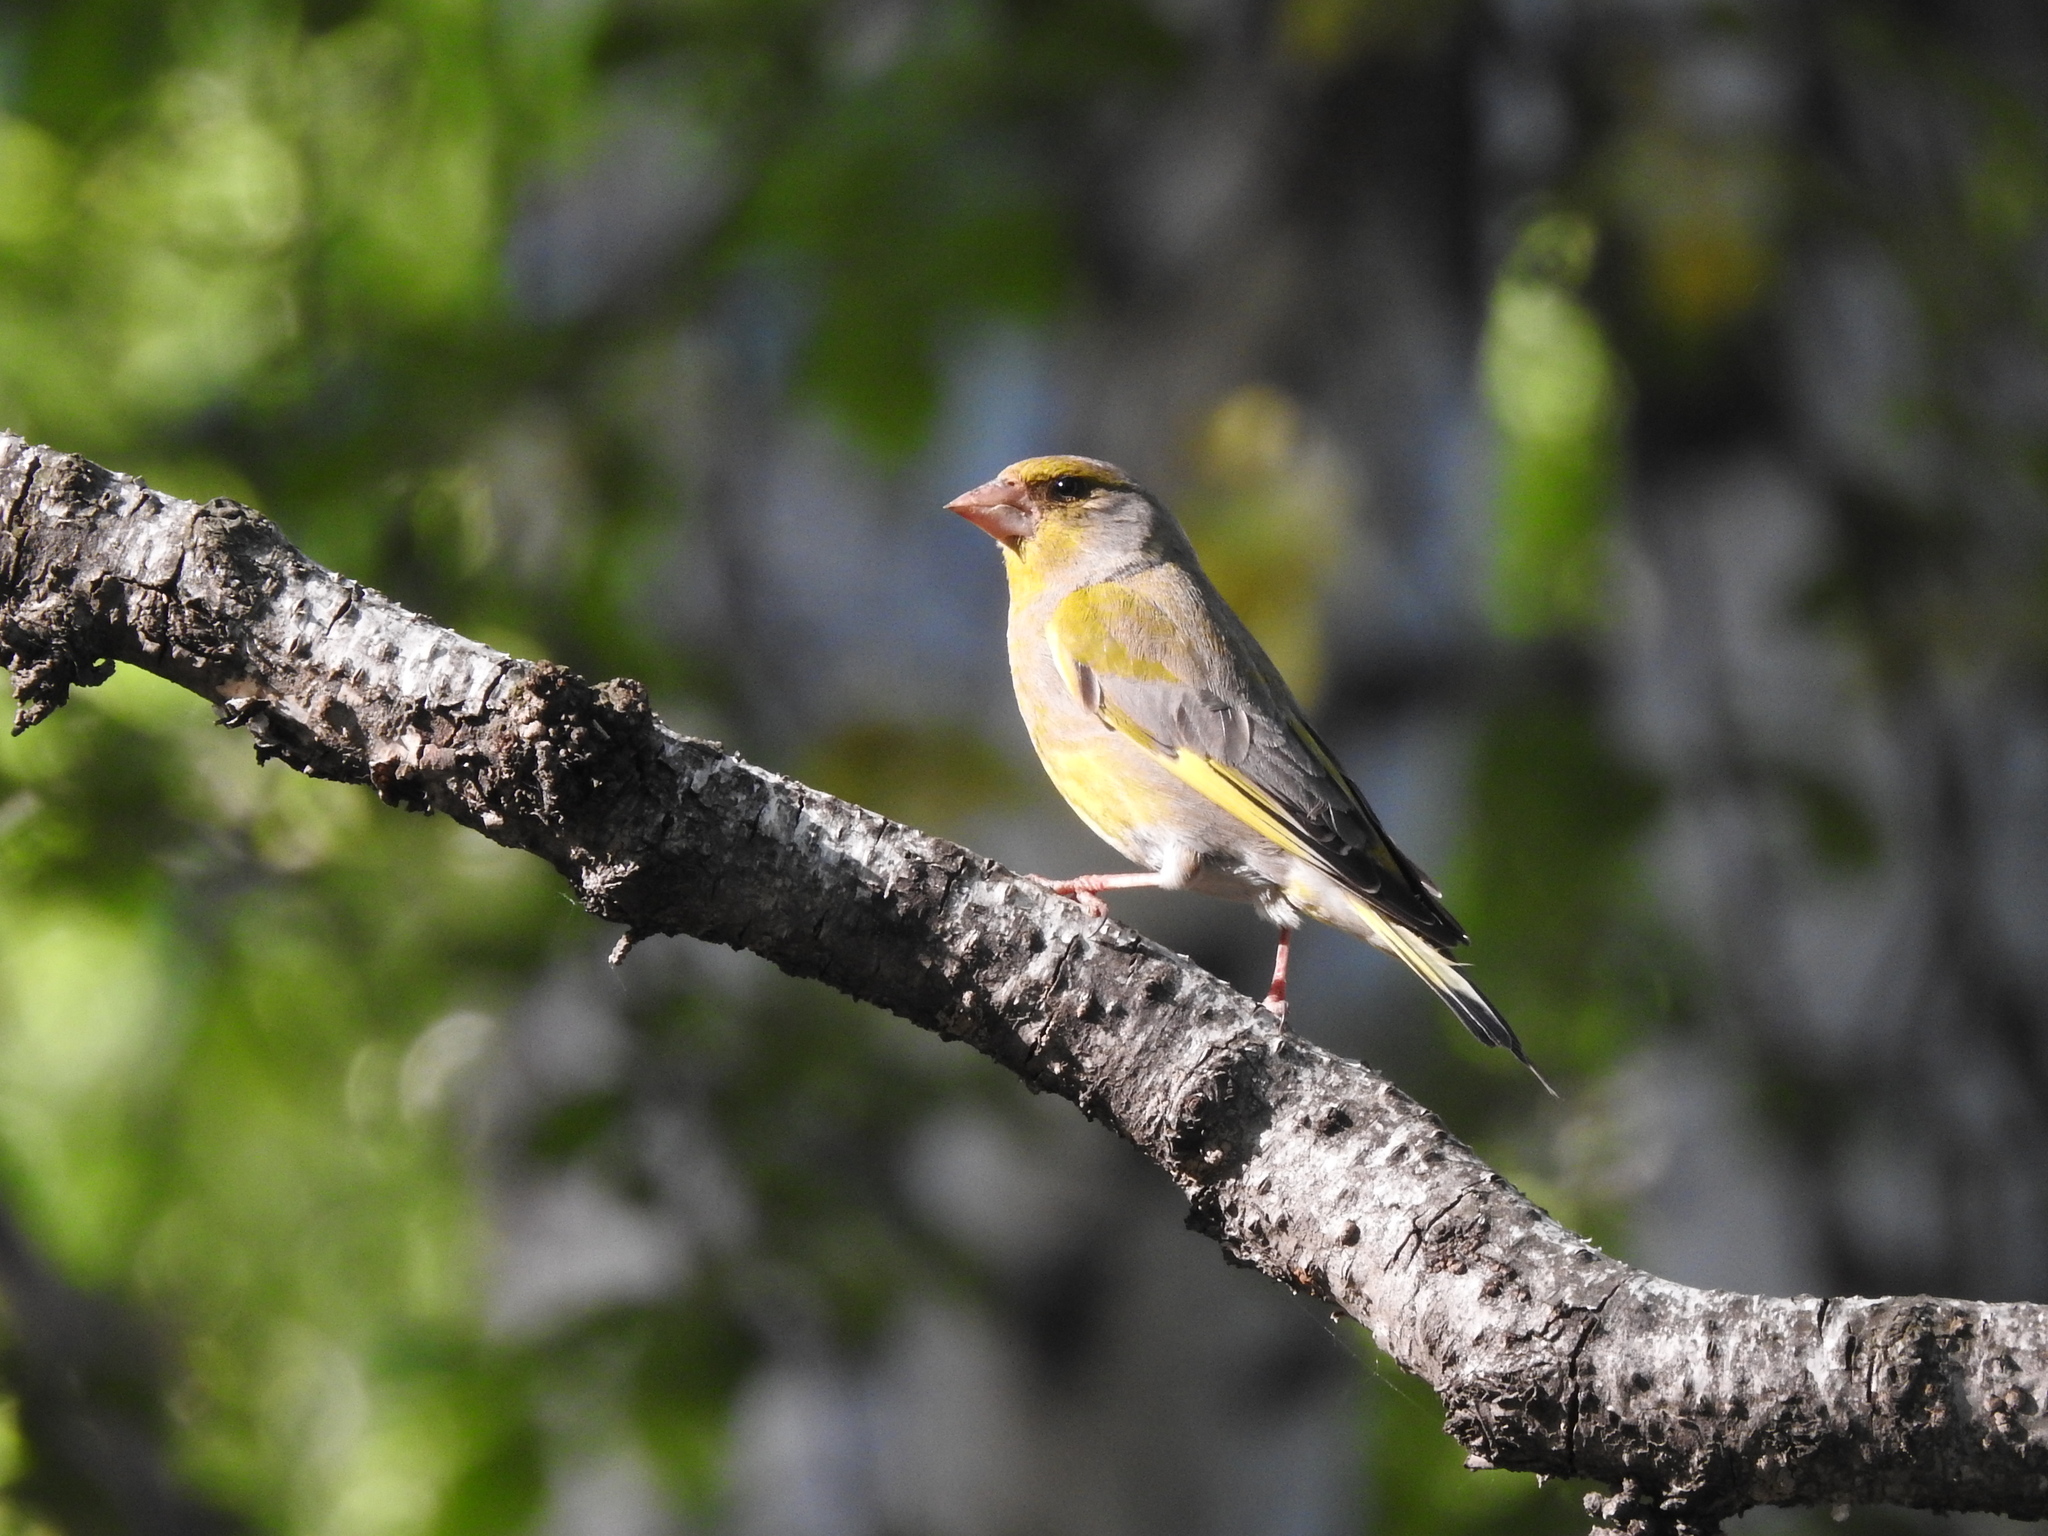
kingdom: Plantae
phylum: Tracheophyta
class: Liliopsida
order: Poales
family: Poaceae
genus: Chloris
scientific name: Chloris chloris
